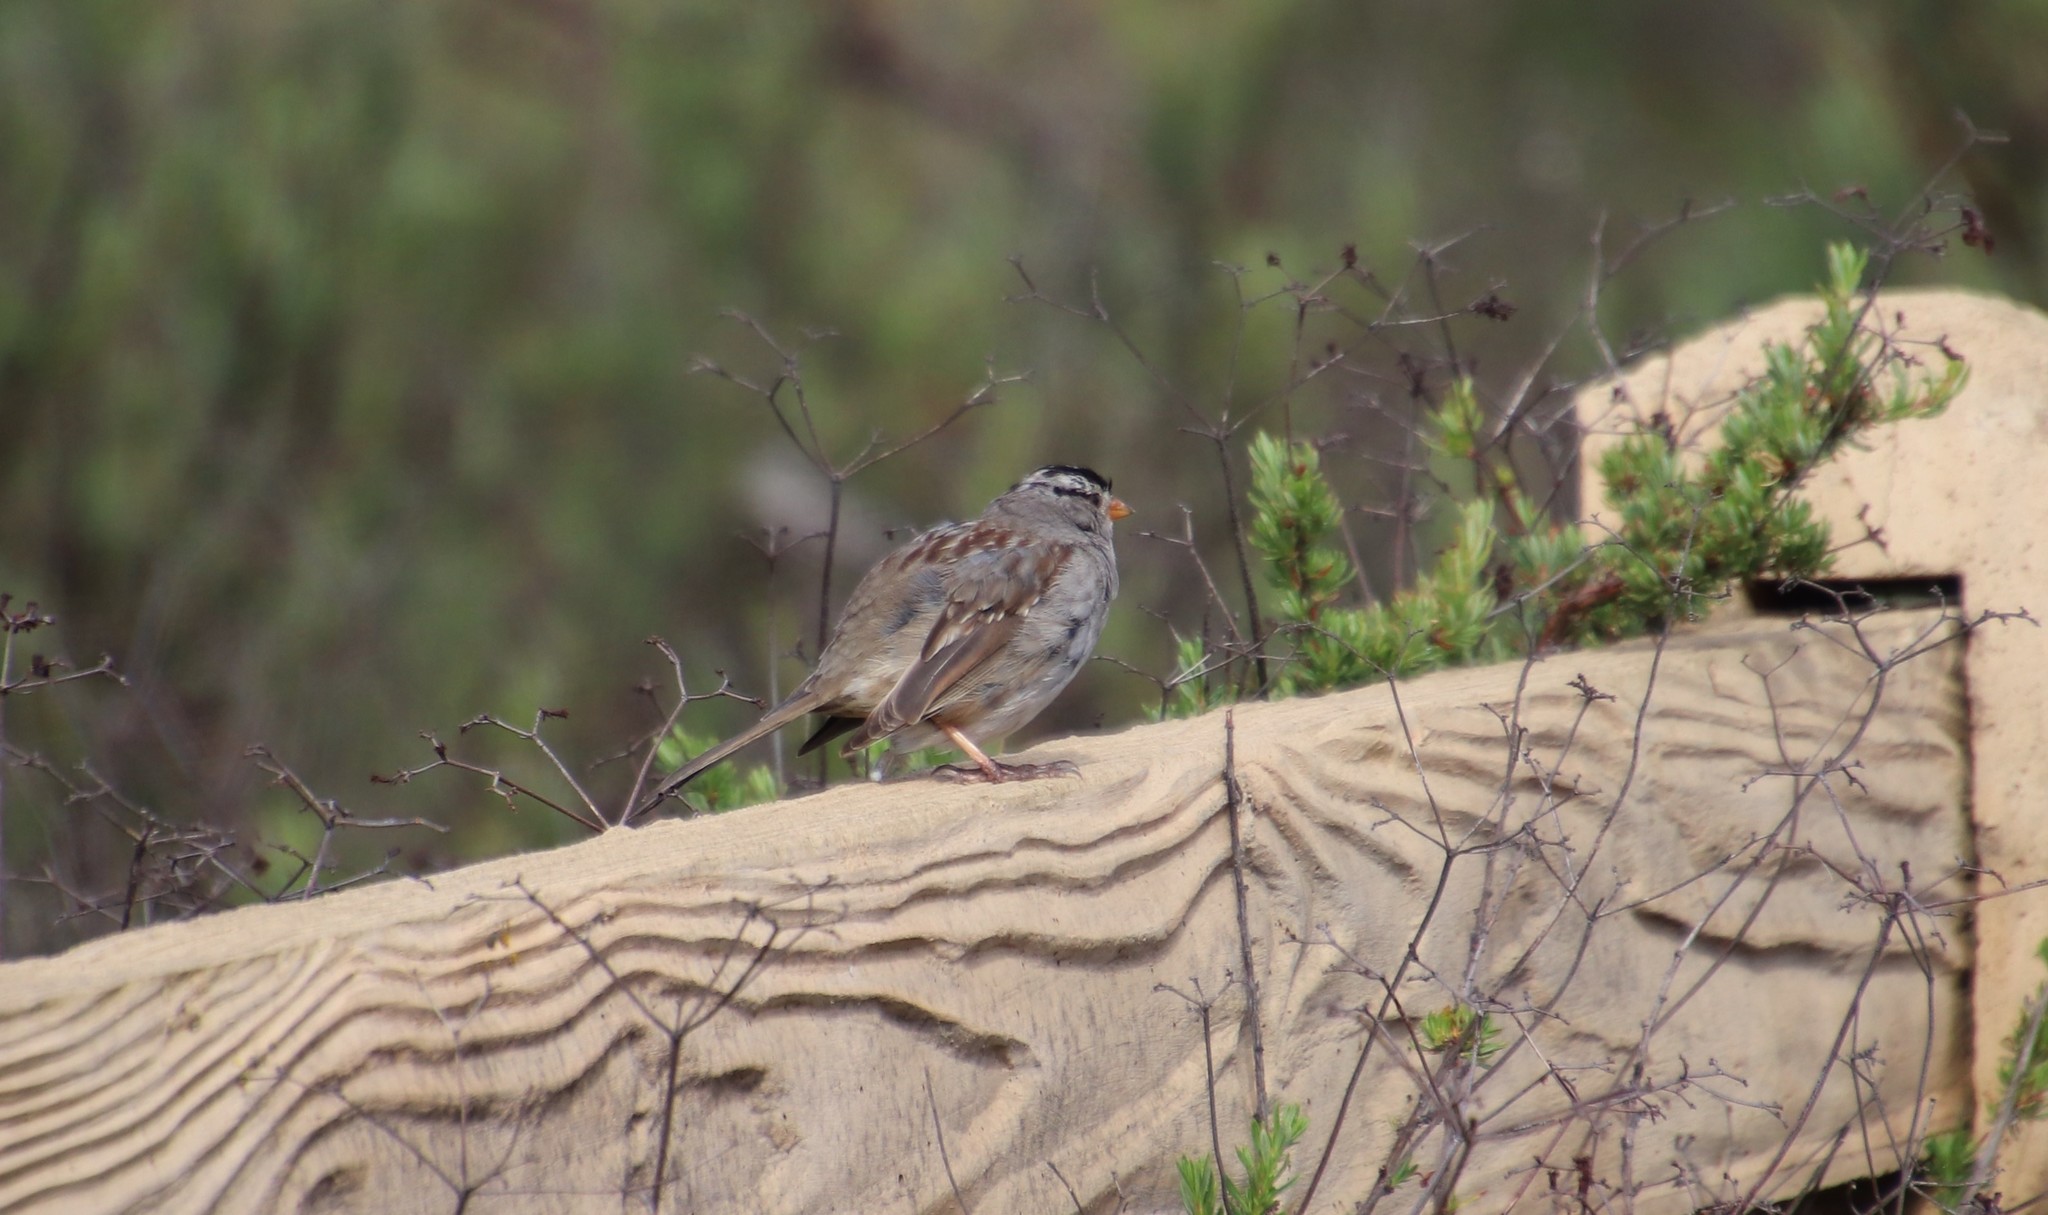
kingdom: Animalia
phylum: Chordata
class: Aves
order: Passeriformes
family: Passerellidae
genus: Zonotrichia
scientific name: Zonotrichia leucophrys
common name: White-crowned sparrow
